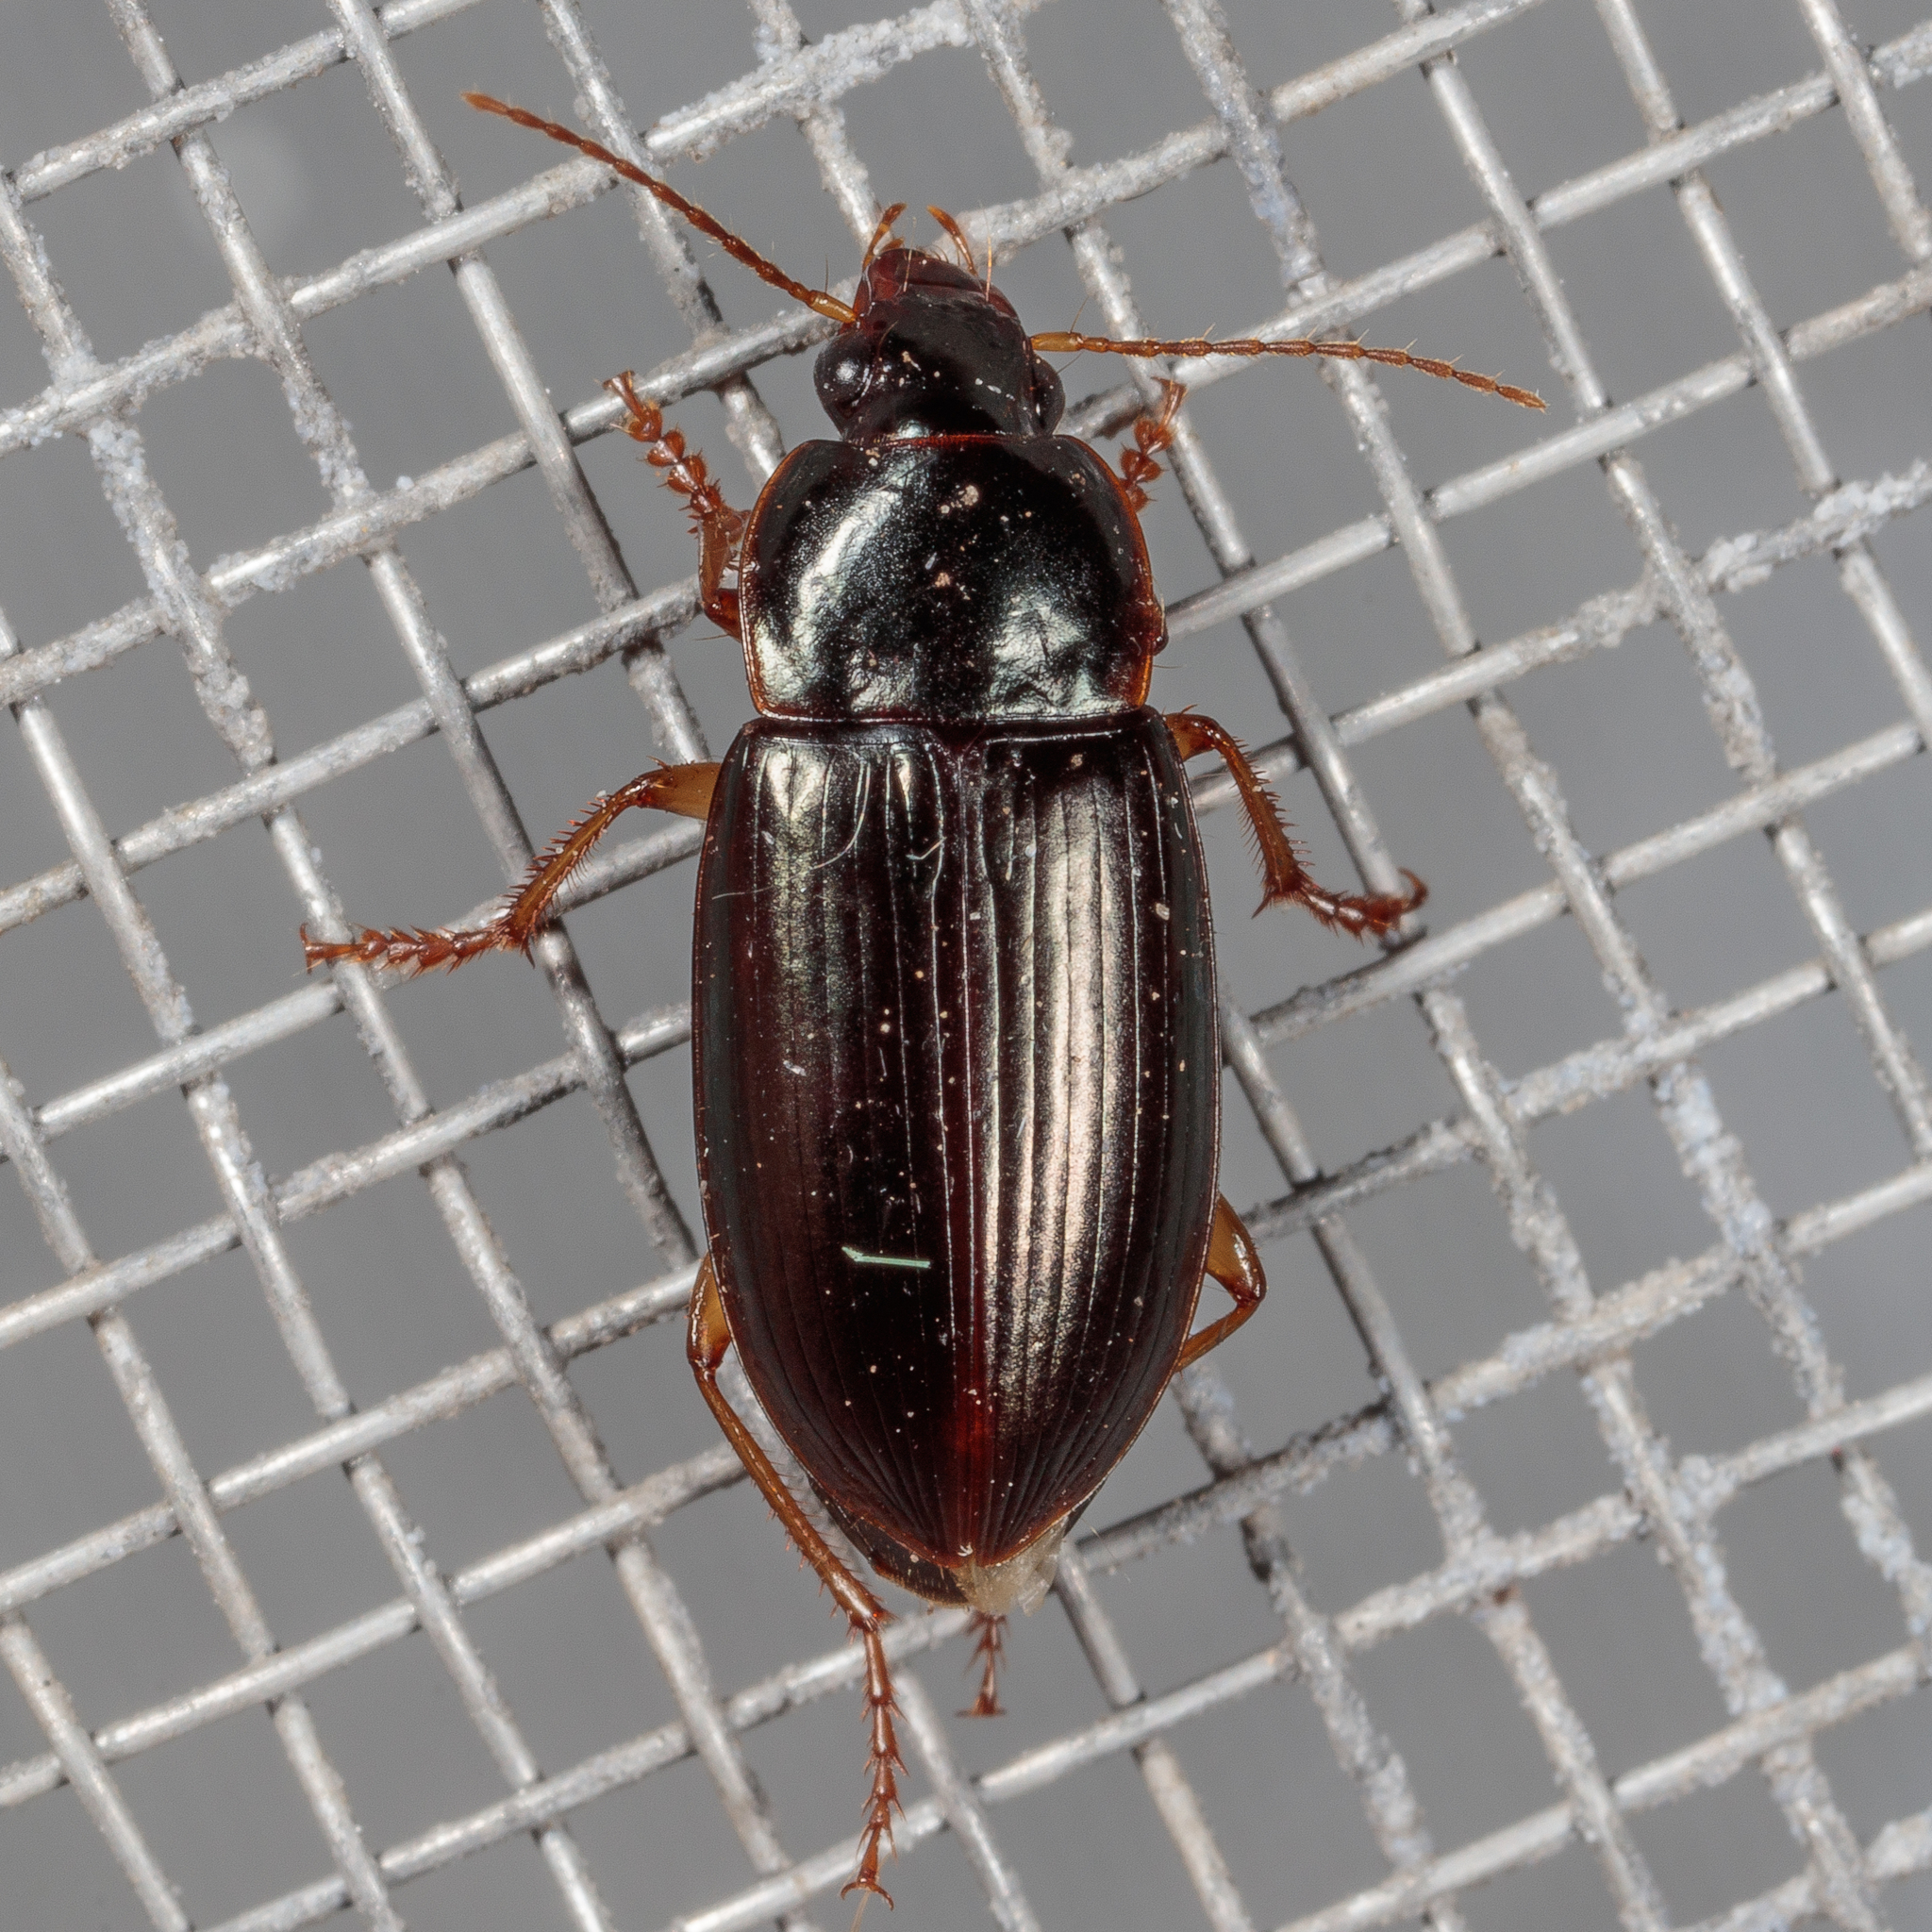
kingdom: Animalia
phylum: Arthropoda
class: Insecta
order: Coleoptera
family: Carabidae
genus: Notiobia
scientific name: Notiobia terminata
